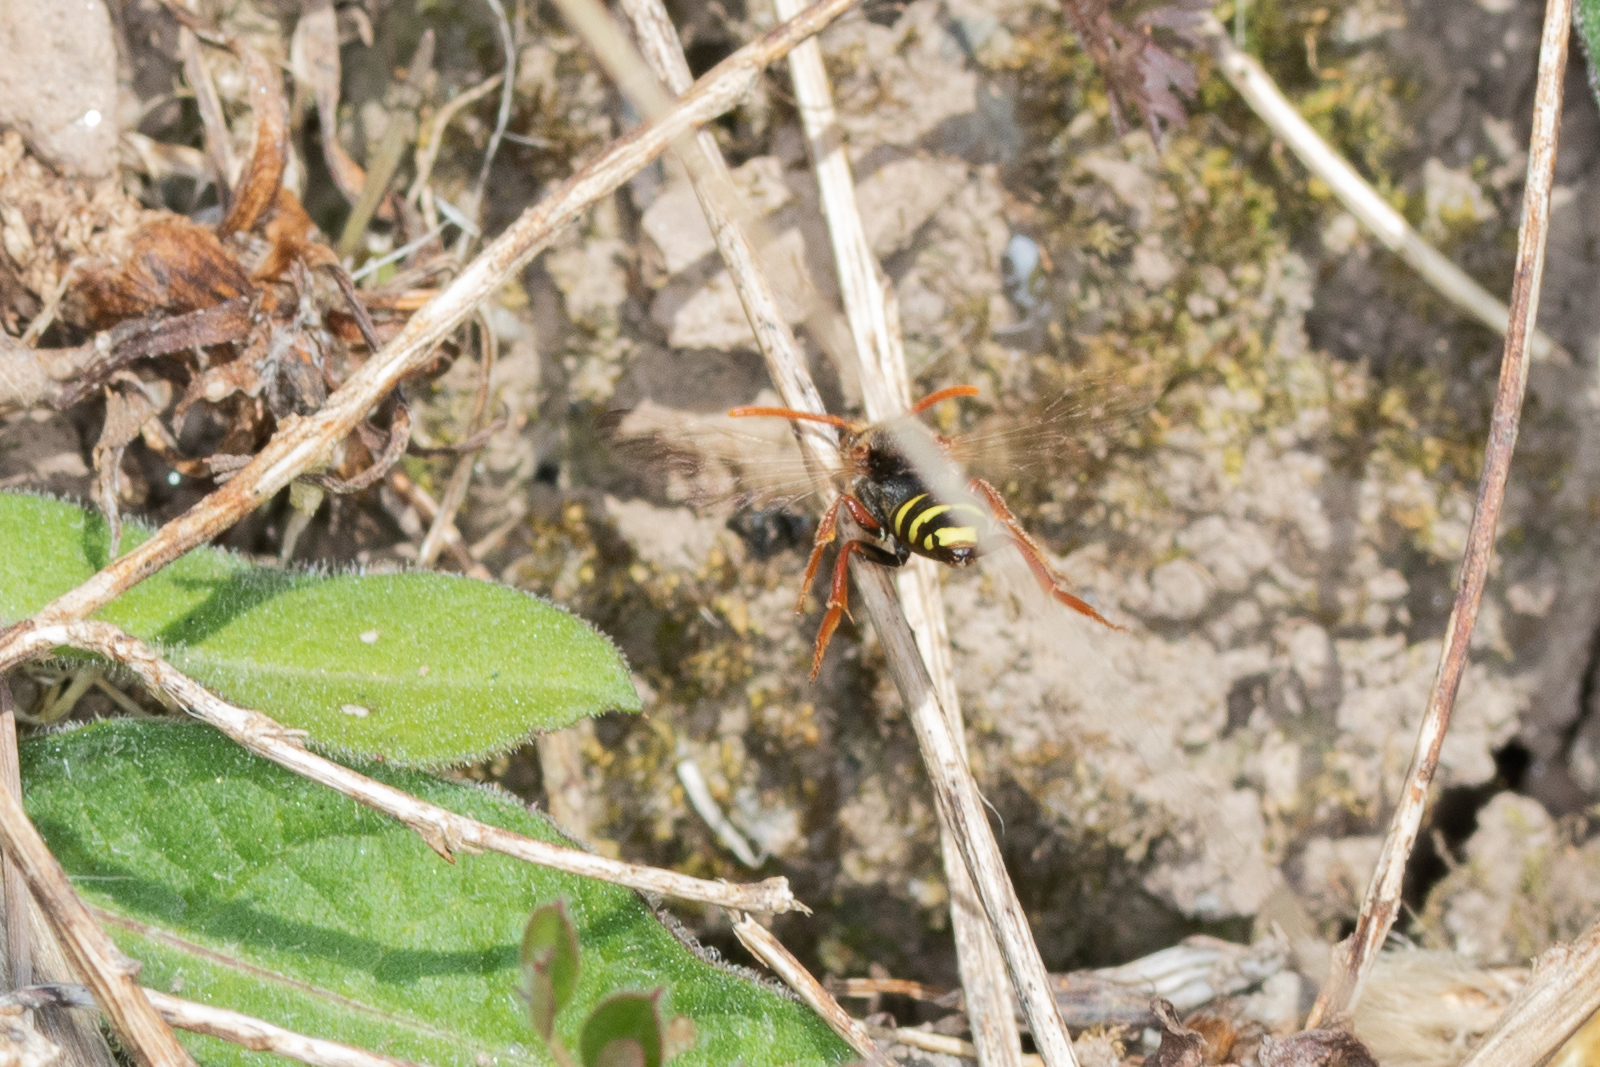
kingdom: Animalia
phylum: Arthropoda
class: Insecta
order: Hymenoptera
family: Apidae
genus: Nomada
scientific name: Nomada marshamella
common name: Marsham's nomad bee
